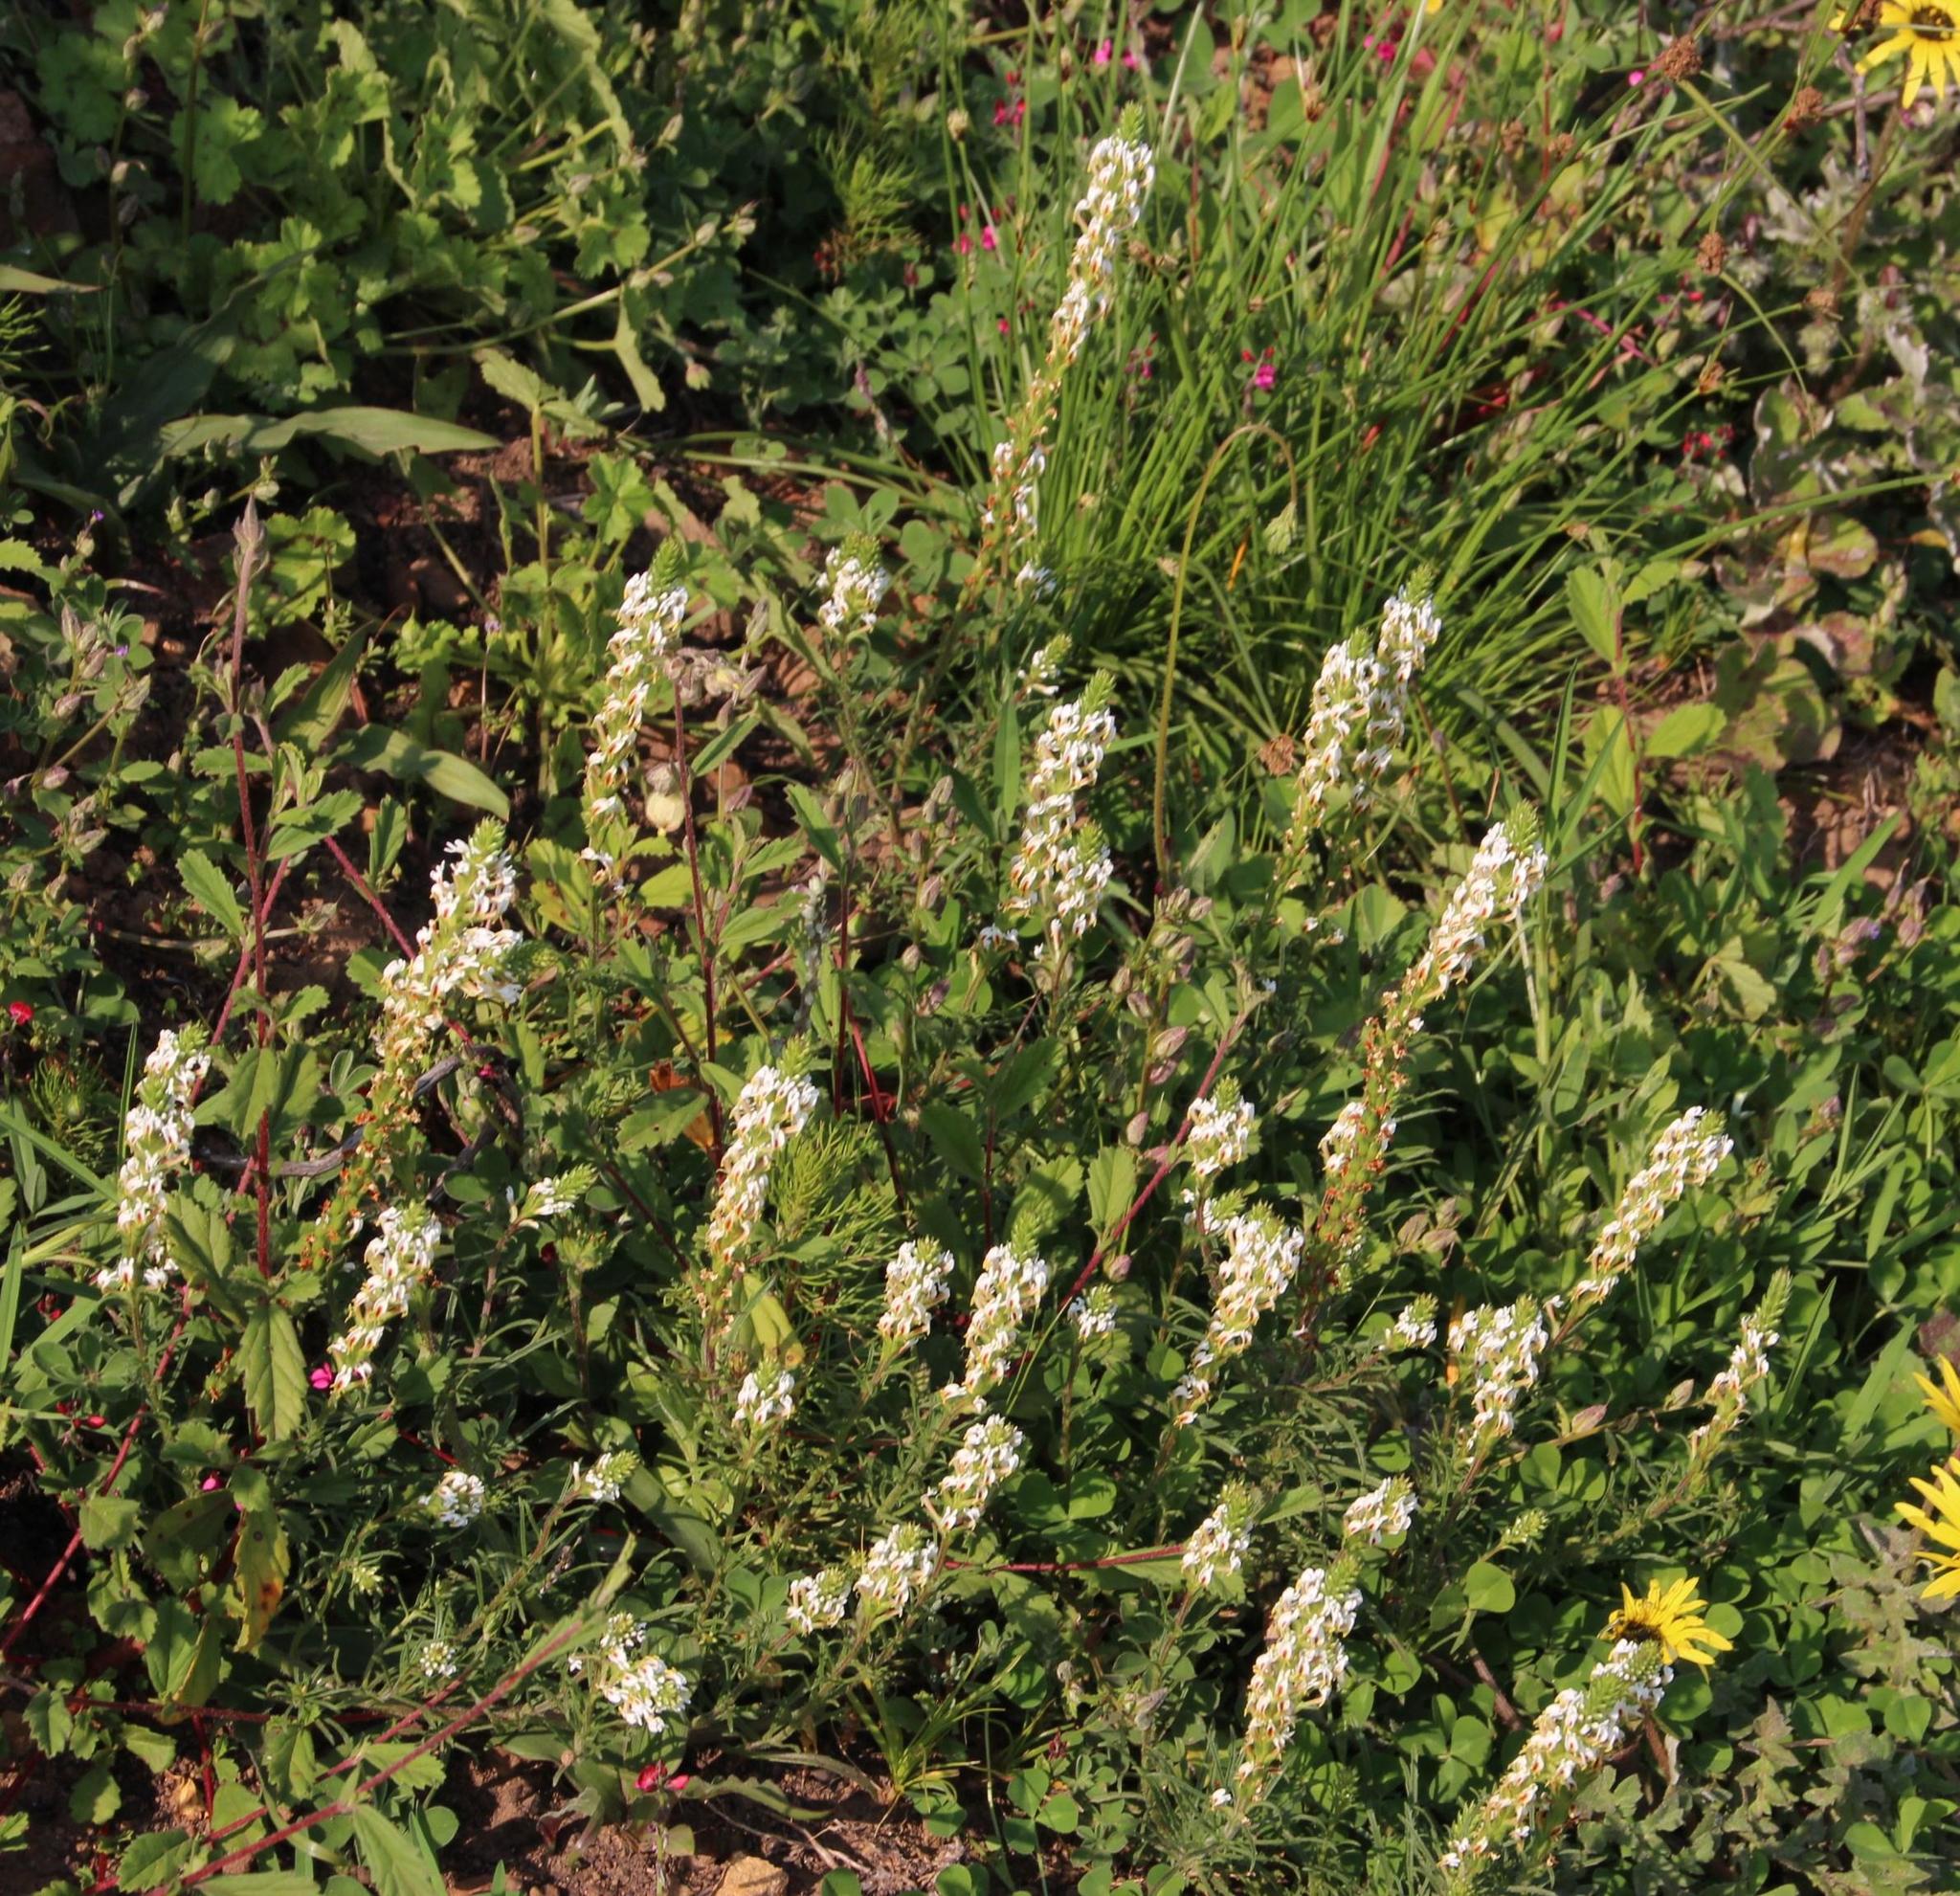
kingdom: Plantae
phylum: Tracheophyta
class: Magnoliopsida
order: Lamiales
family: Scrophulariaceae
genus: Hebenstretia
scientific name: Hebenstretia repens
